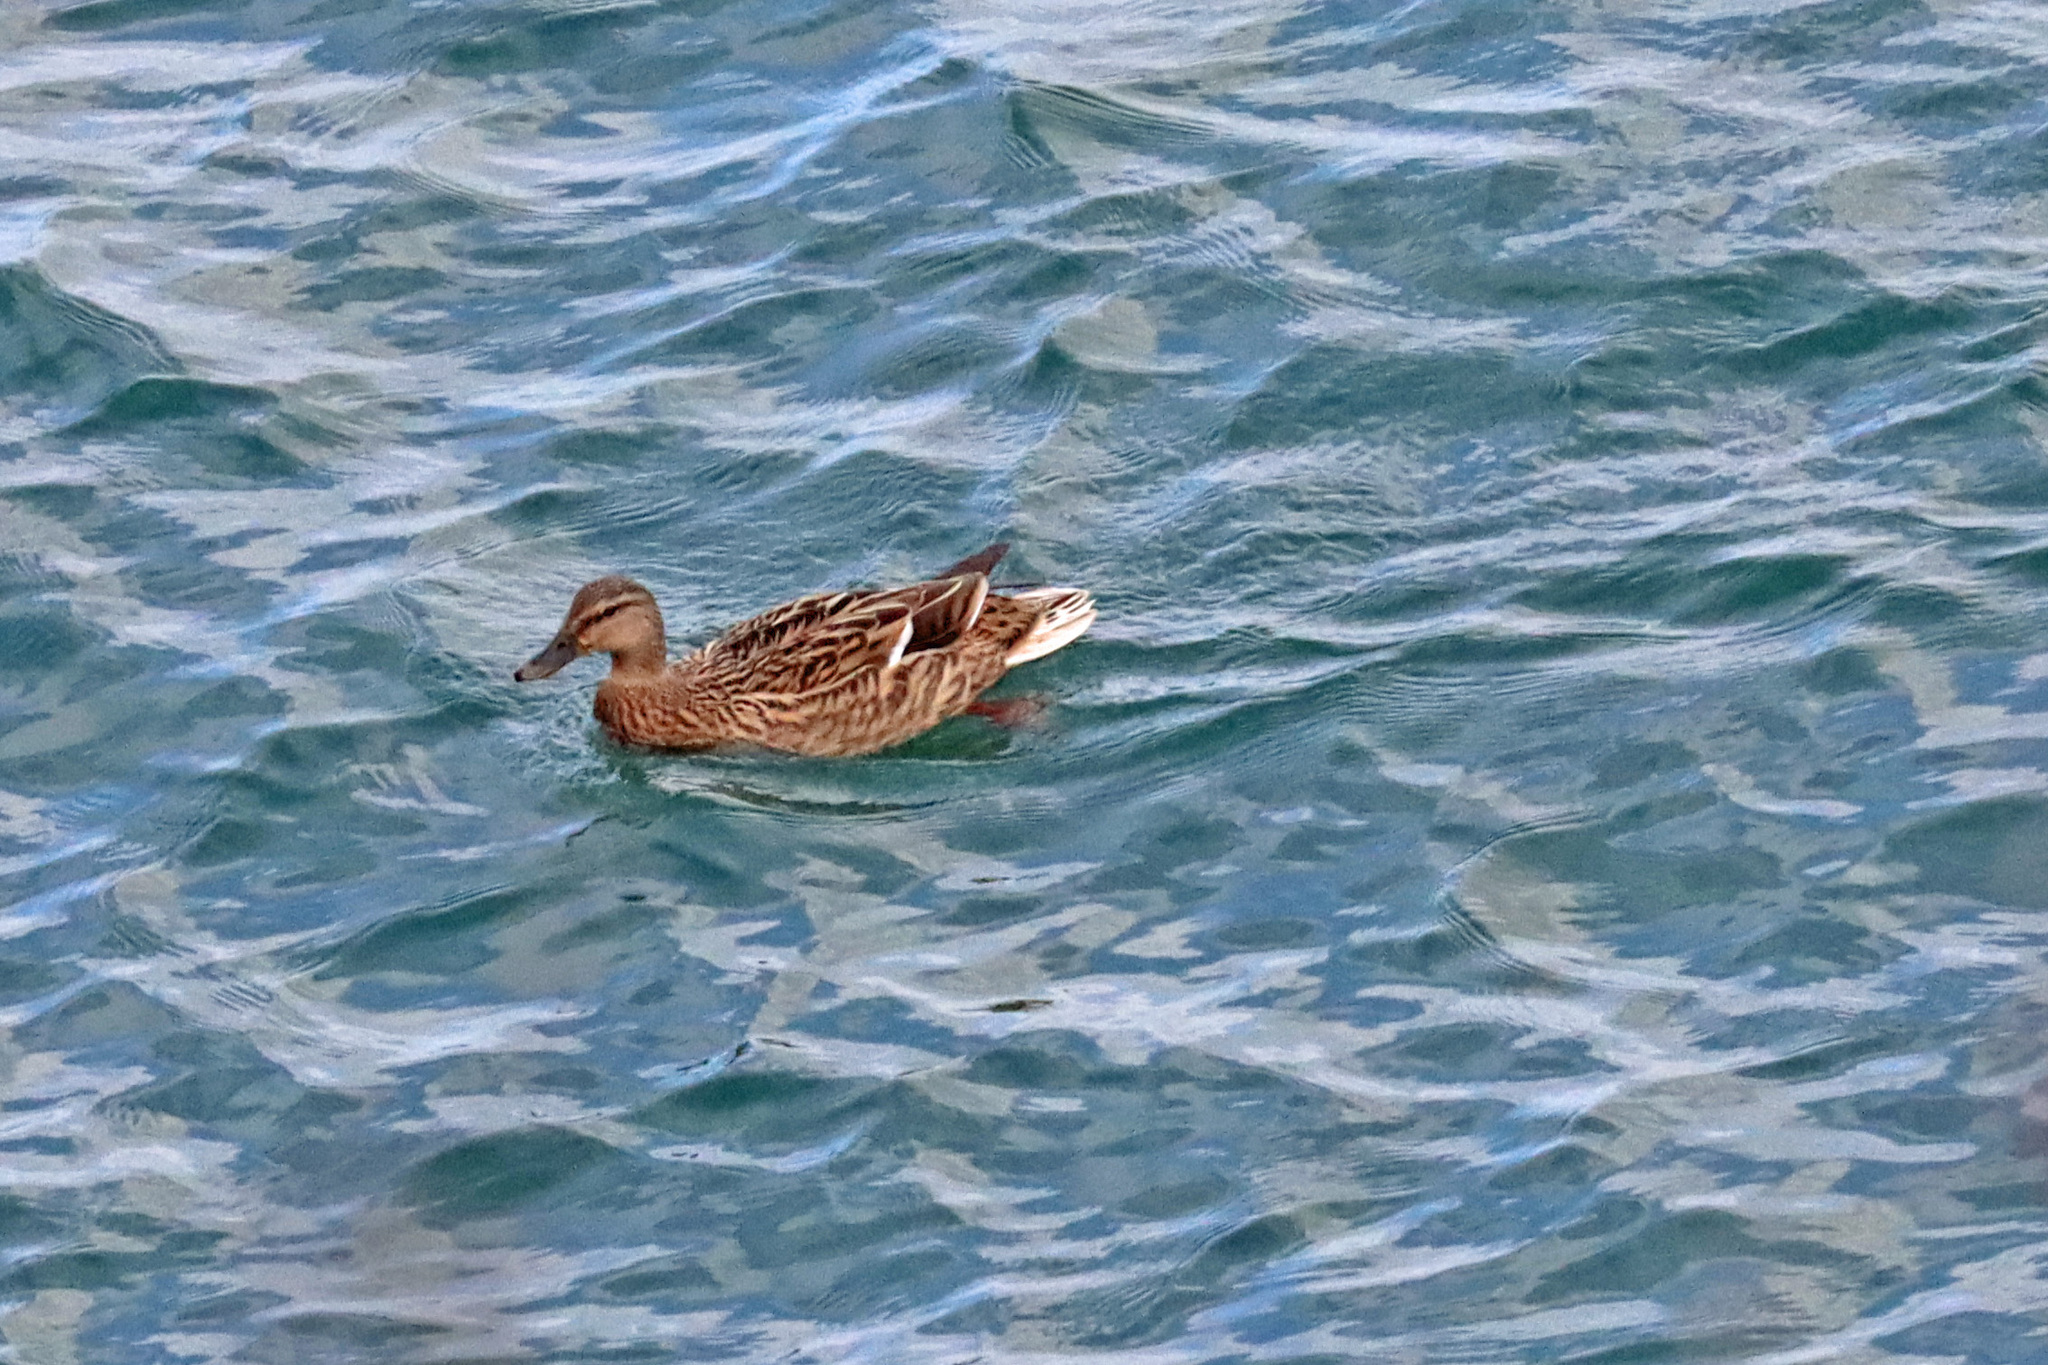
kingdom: Animalia
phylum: Chordata
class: Aves
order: Anseriformes
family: Anatidae
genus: Anas
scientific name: Anas platyrhynchos
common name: Mallard
